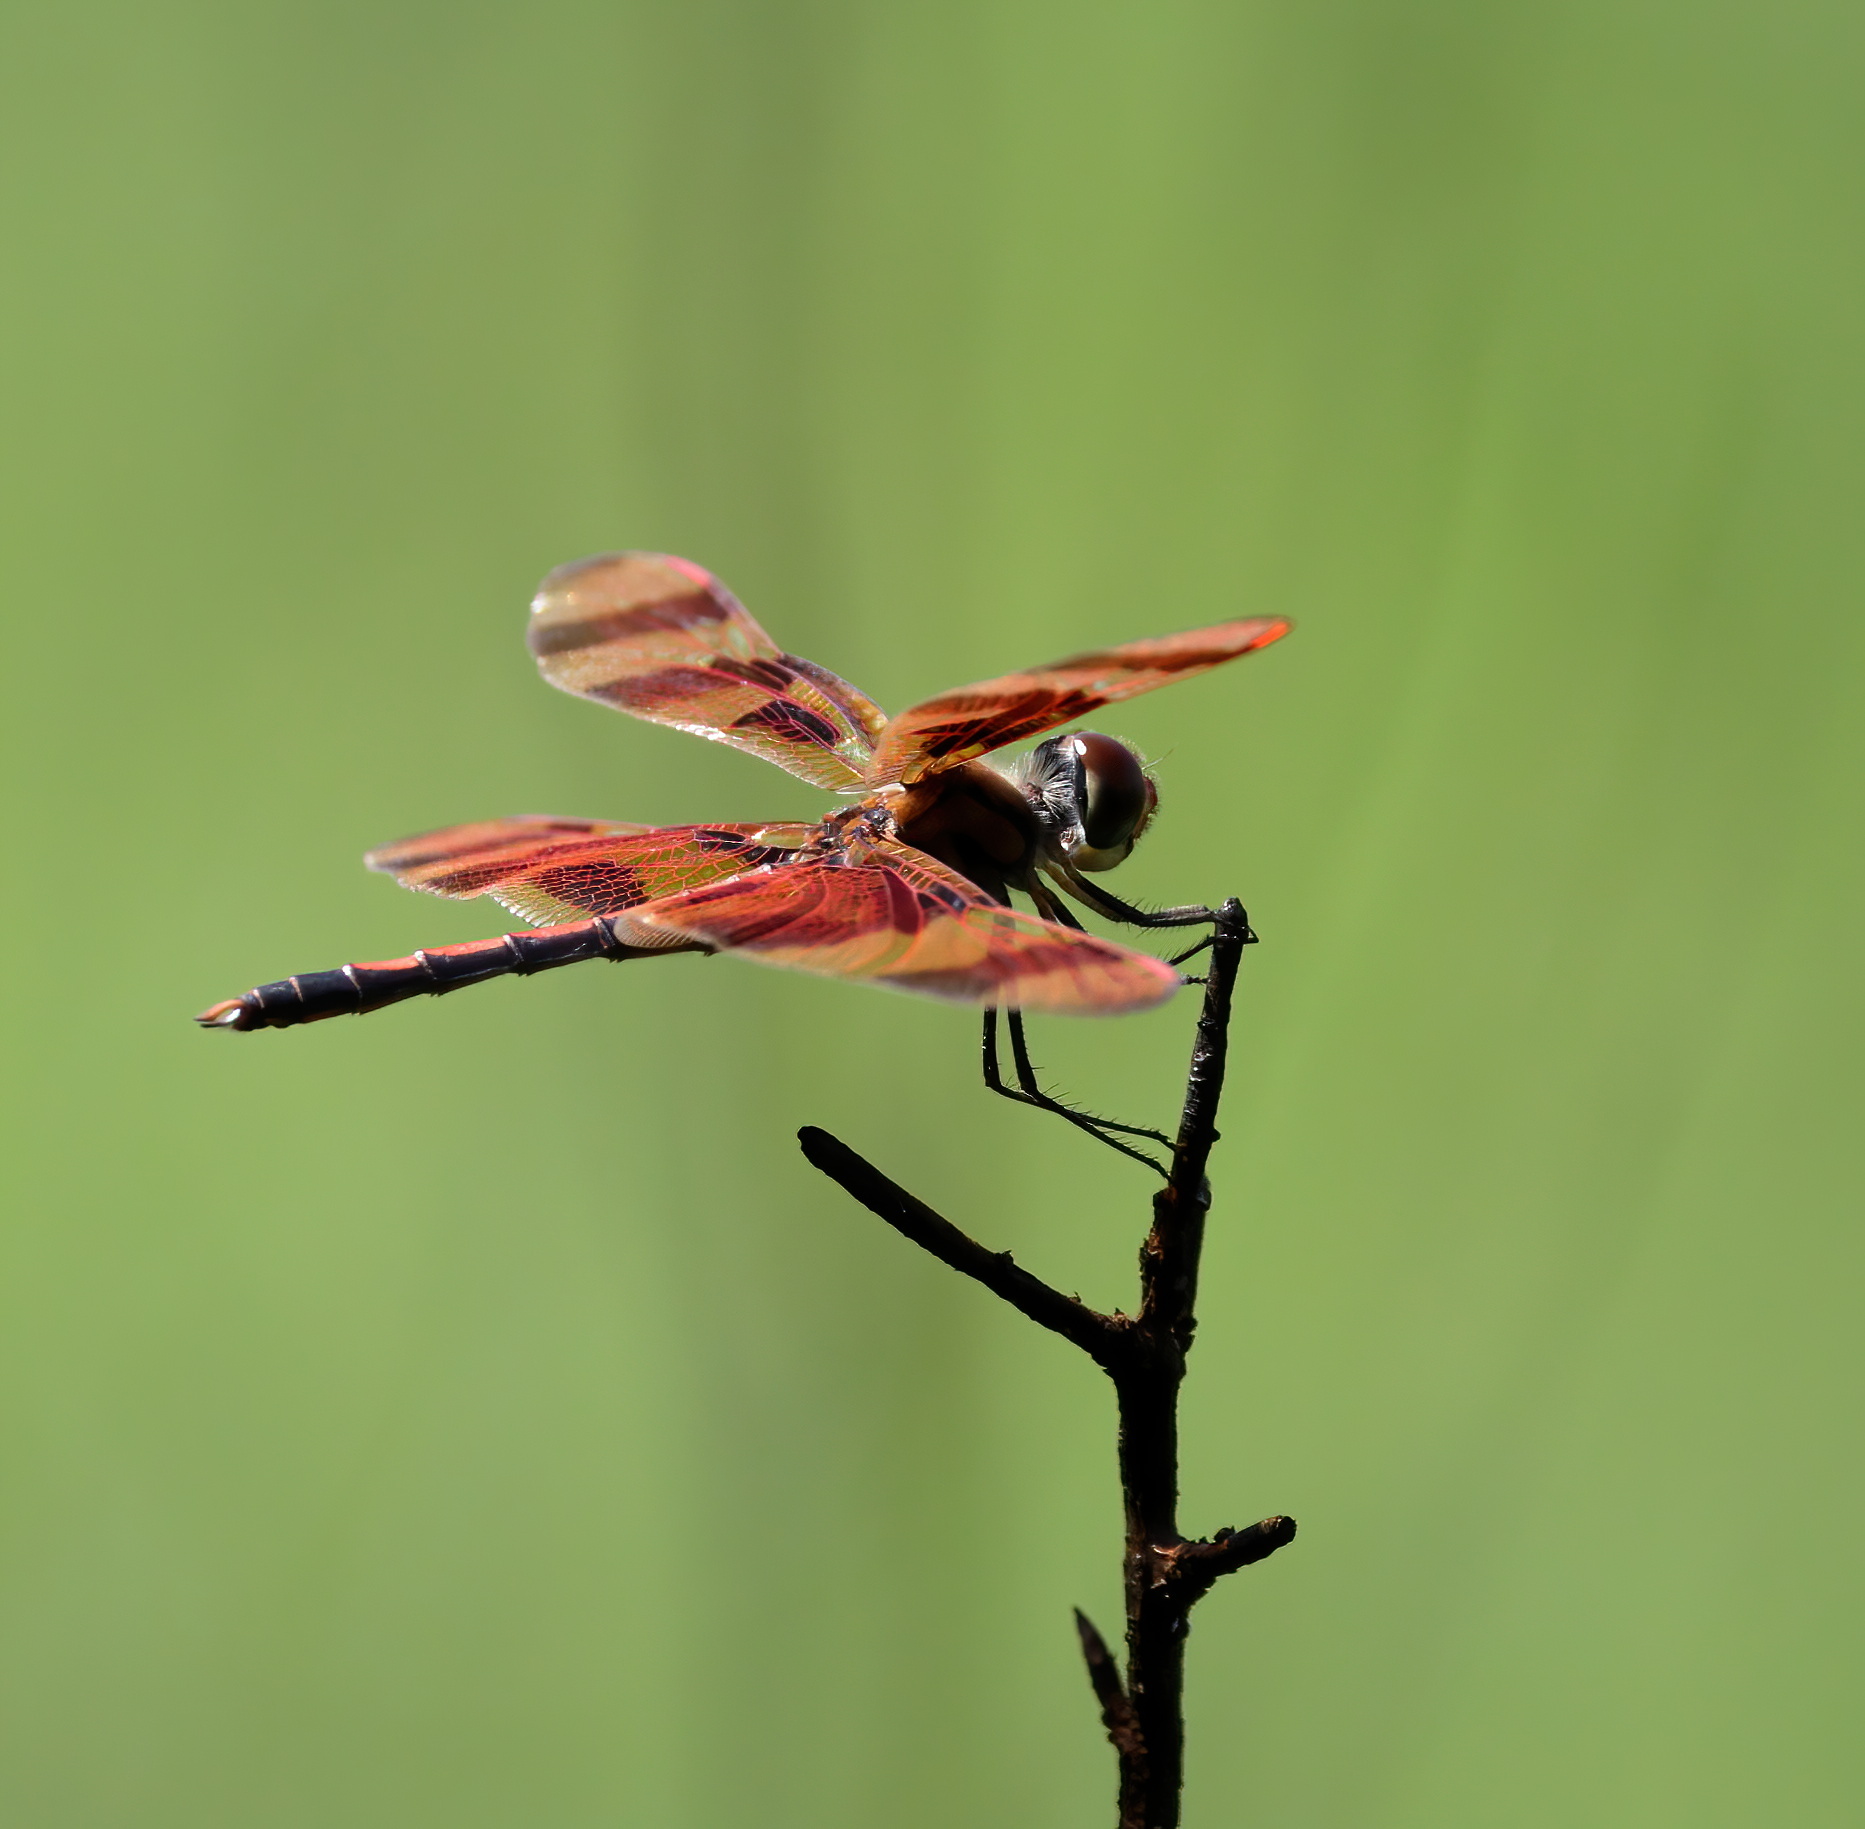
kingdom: Animalia
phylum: Arthropoda
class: Insecta
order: Odonata
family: Libellulidae
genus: Celithemis
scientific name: Celithemis eponina
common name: Halloween pennant
